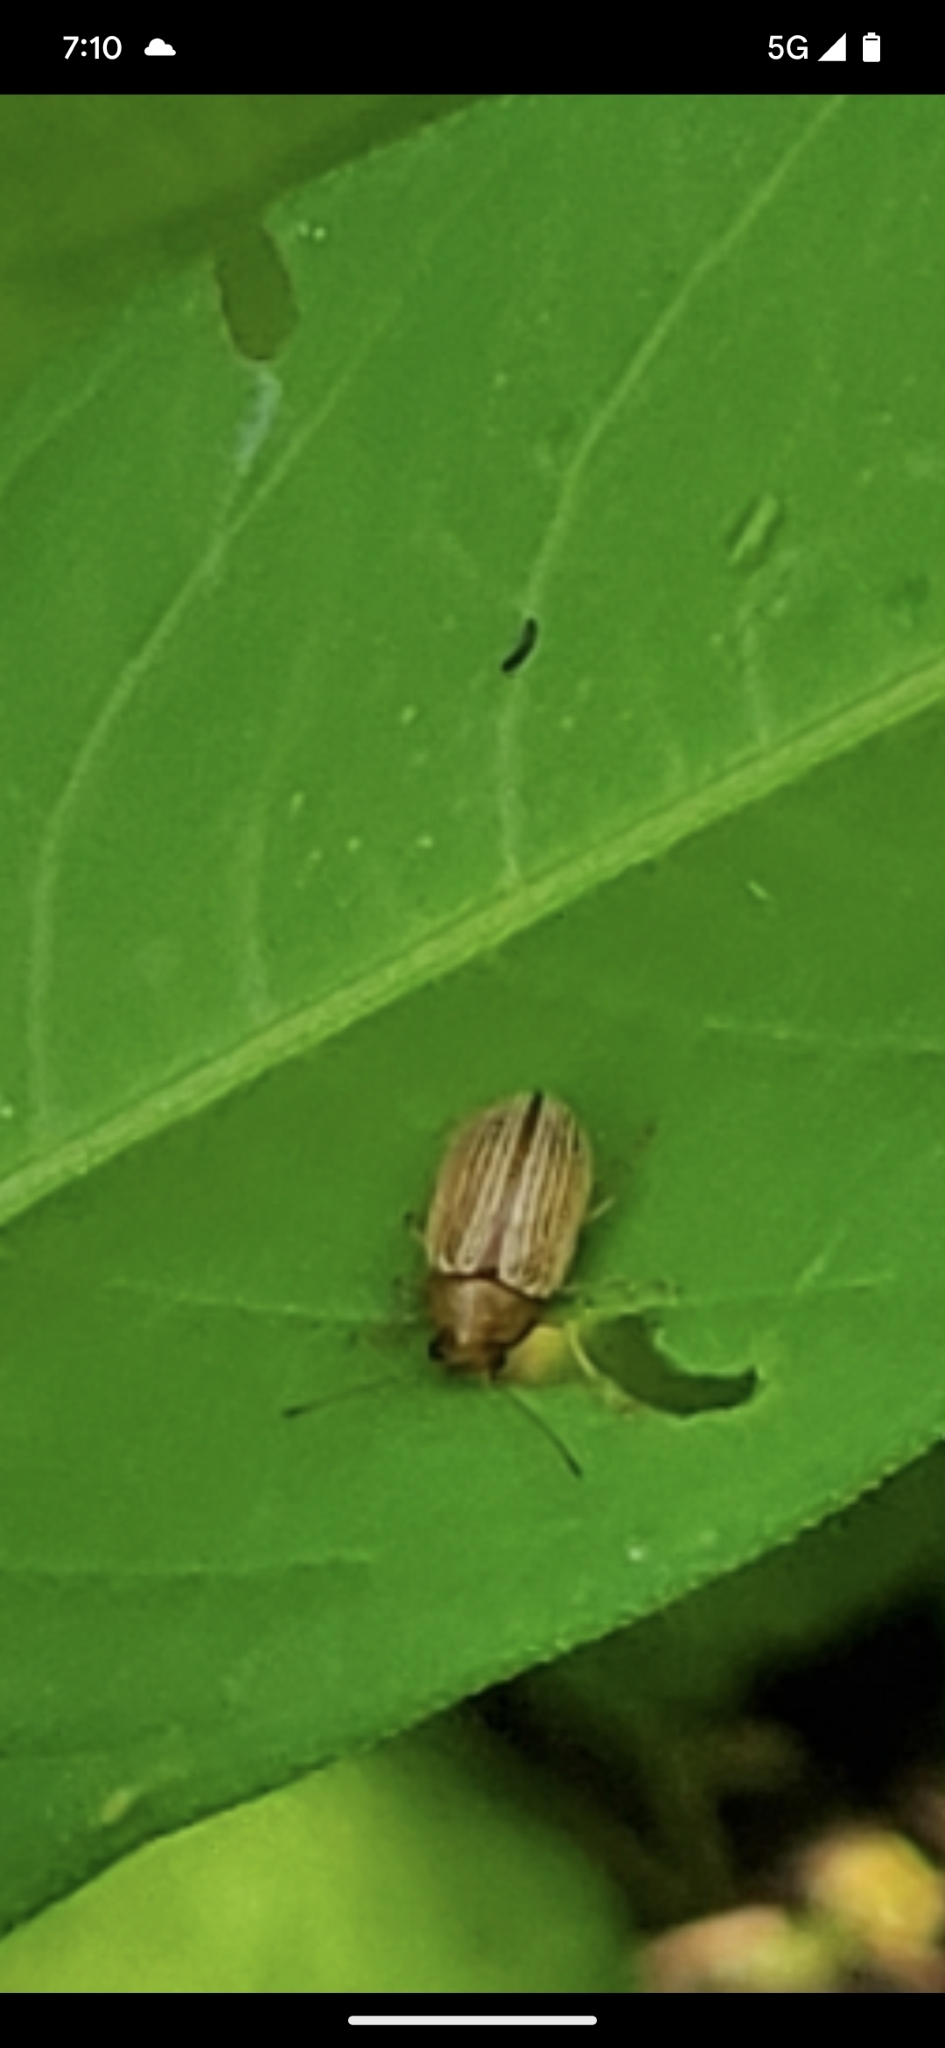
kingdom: Animalia
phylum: Arthropoda
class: Insecta
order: Coleoptera
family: Chrysomelidae
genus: Colaspis
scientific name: Colaspis brunnea
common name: Grape colaspis
